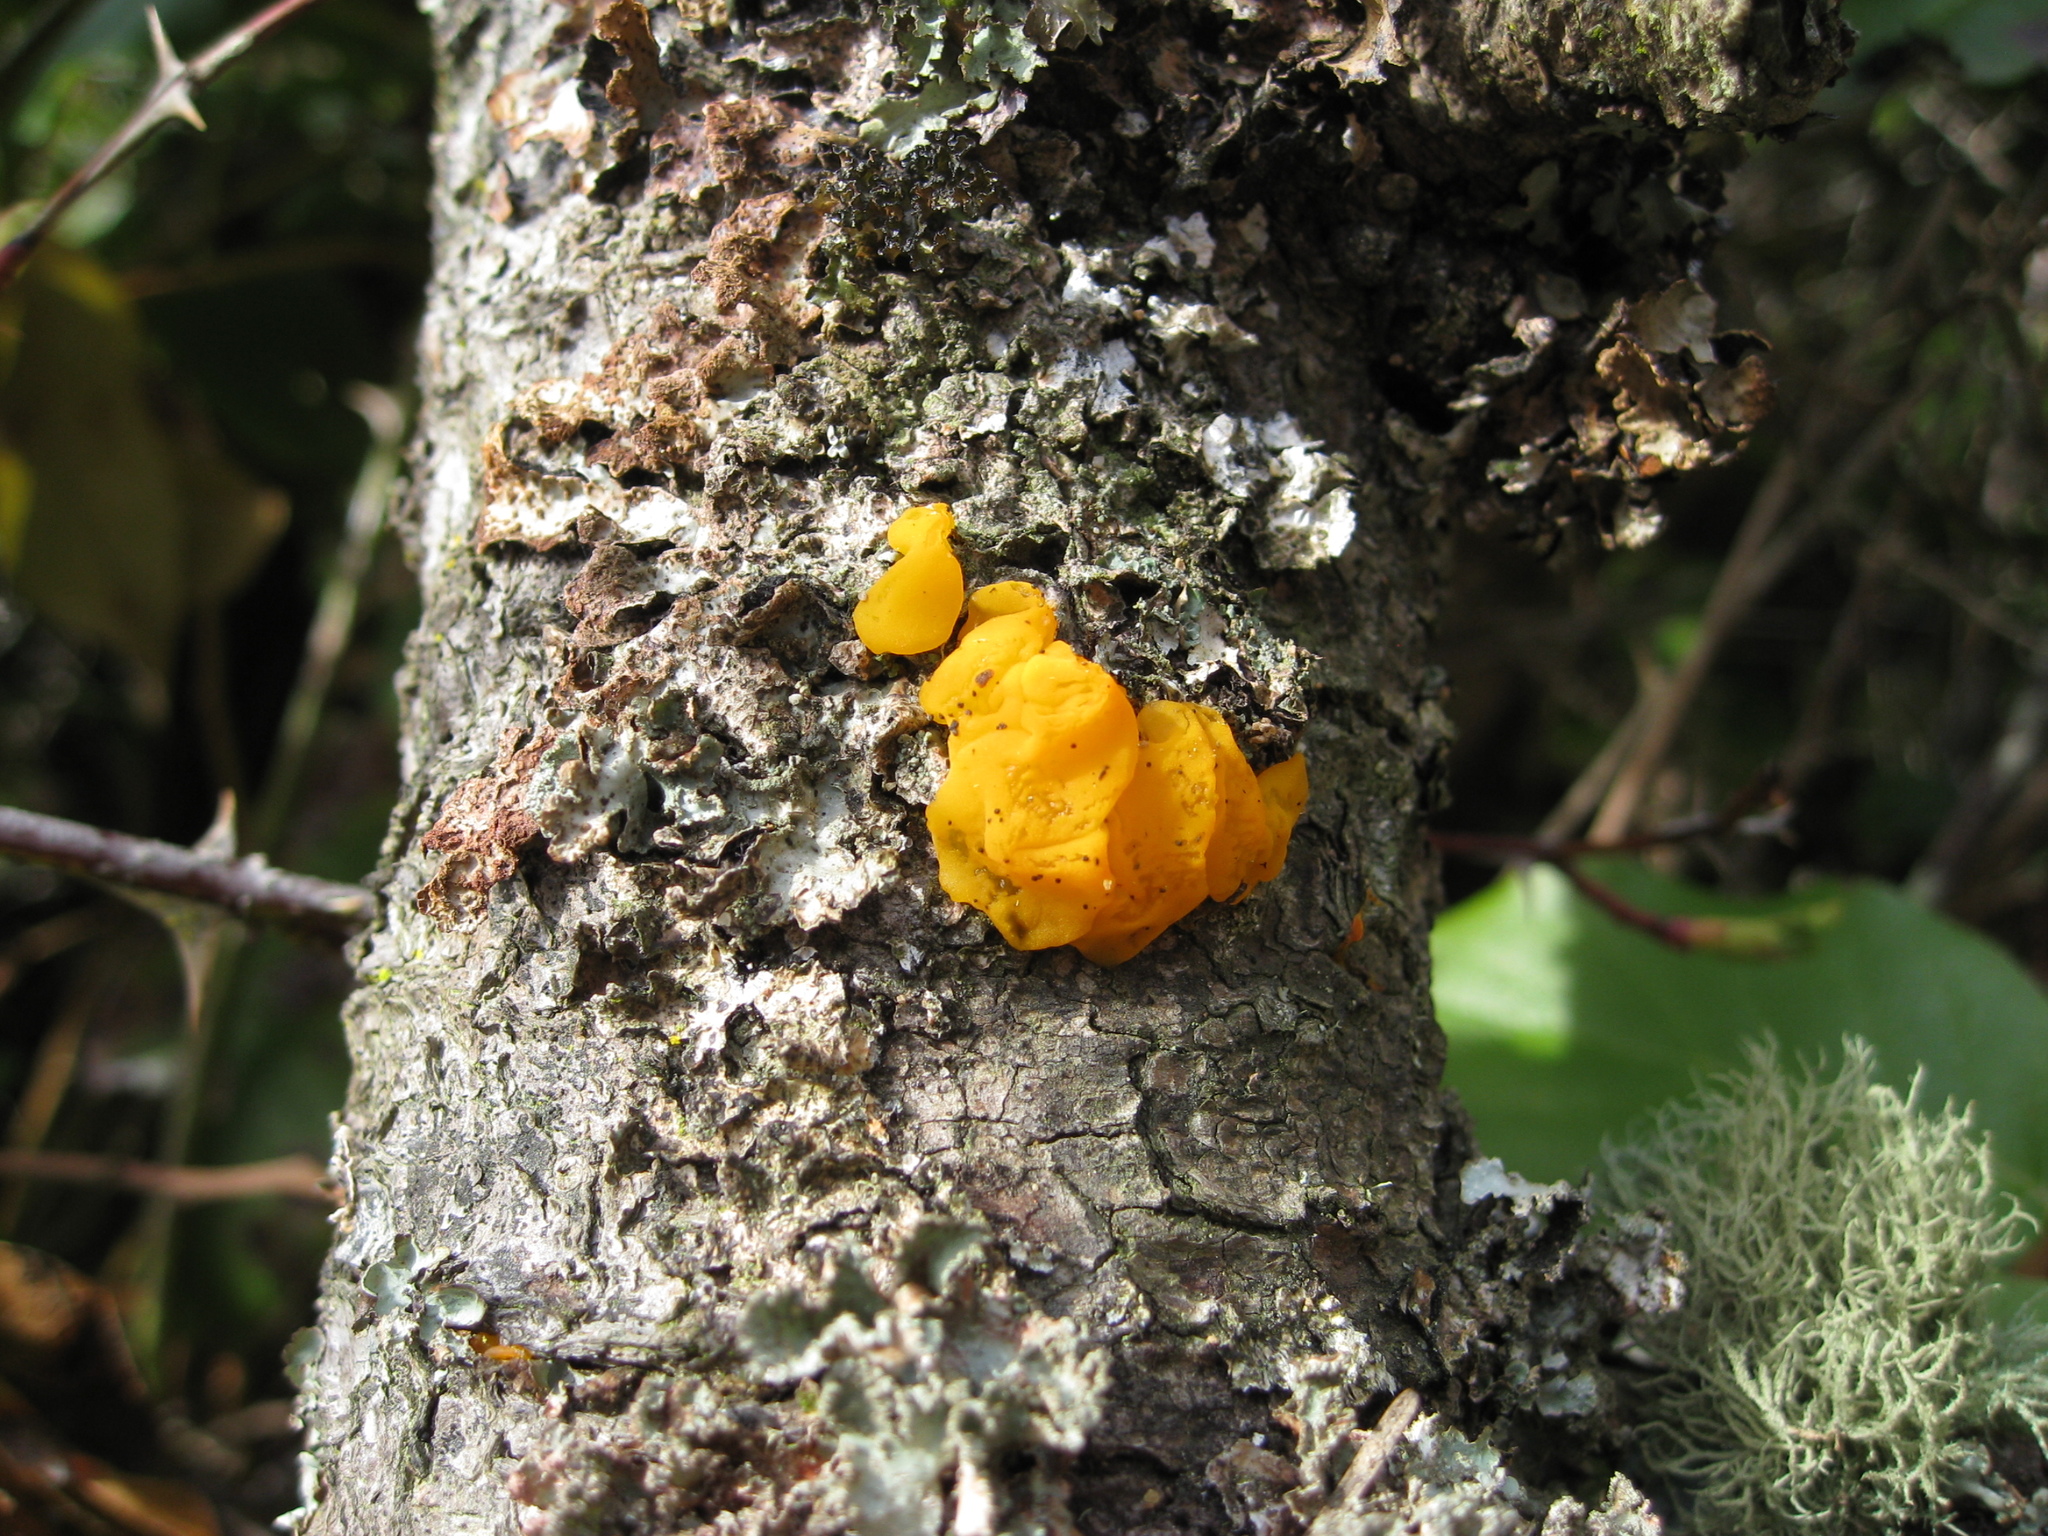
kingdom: Fungi
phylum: Basidiomycota
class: Dacrymycetes
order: Dacrymycetales
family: Dacrymycetaceae
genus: Dacrymyces
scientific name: Dacrymyces chrysospermus
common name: Orange jelly spot
